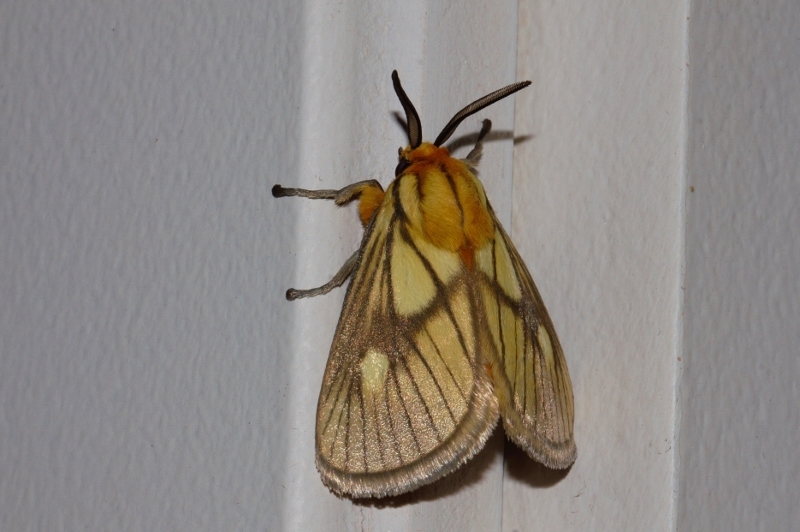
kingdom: Animalia
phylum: Arthropoda
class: Insecta
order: Lepidoptera
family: Limacodidae
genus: Cosuma
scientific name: Cosuma polana
